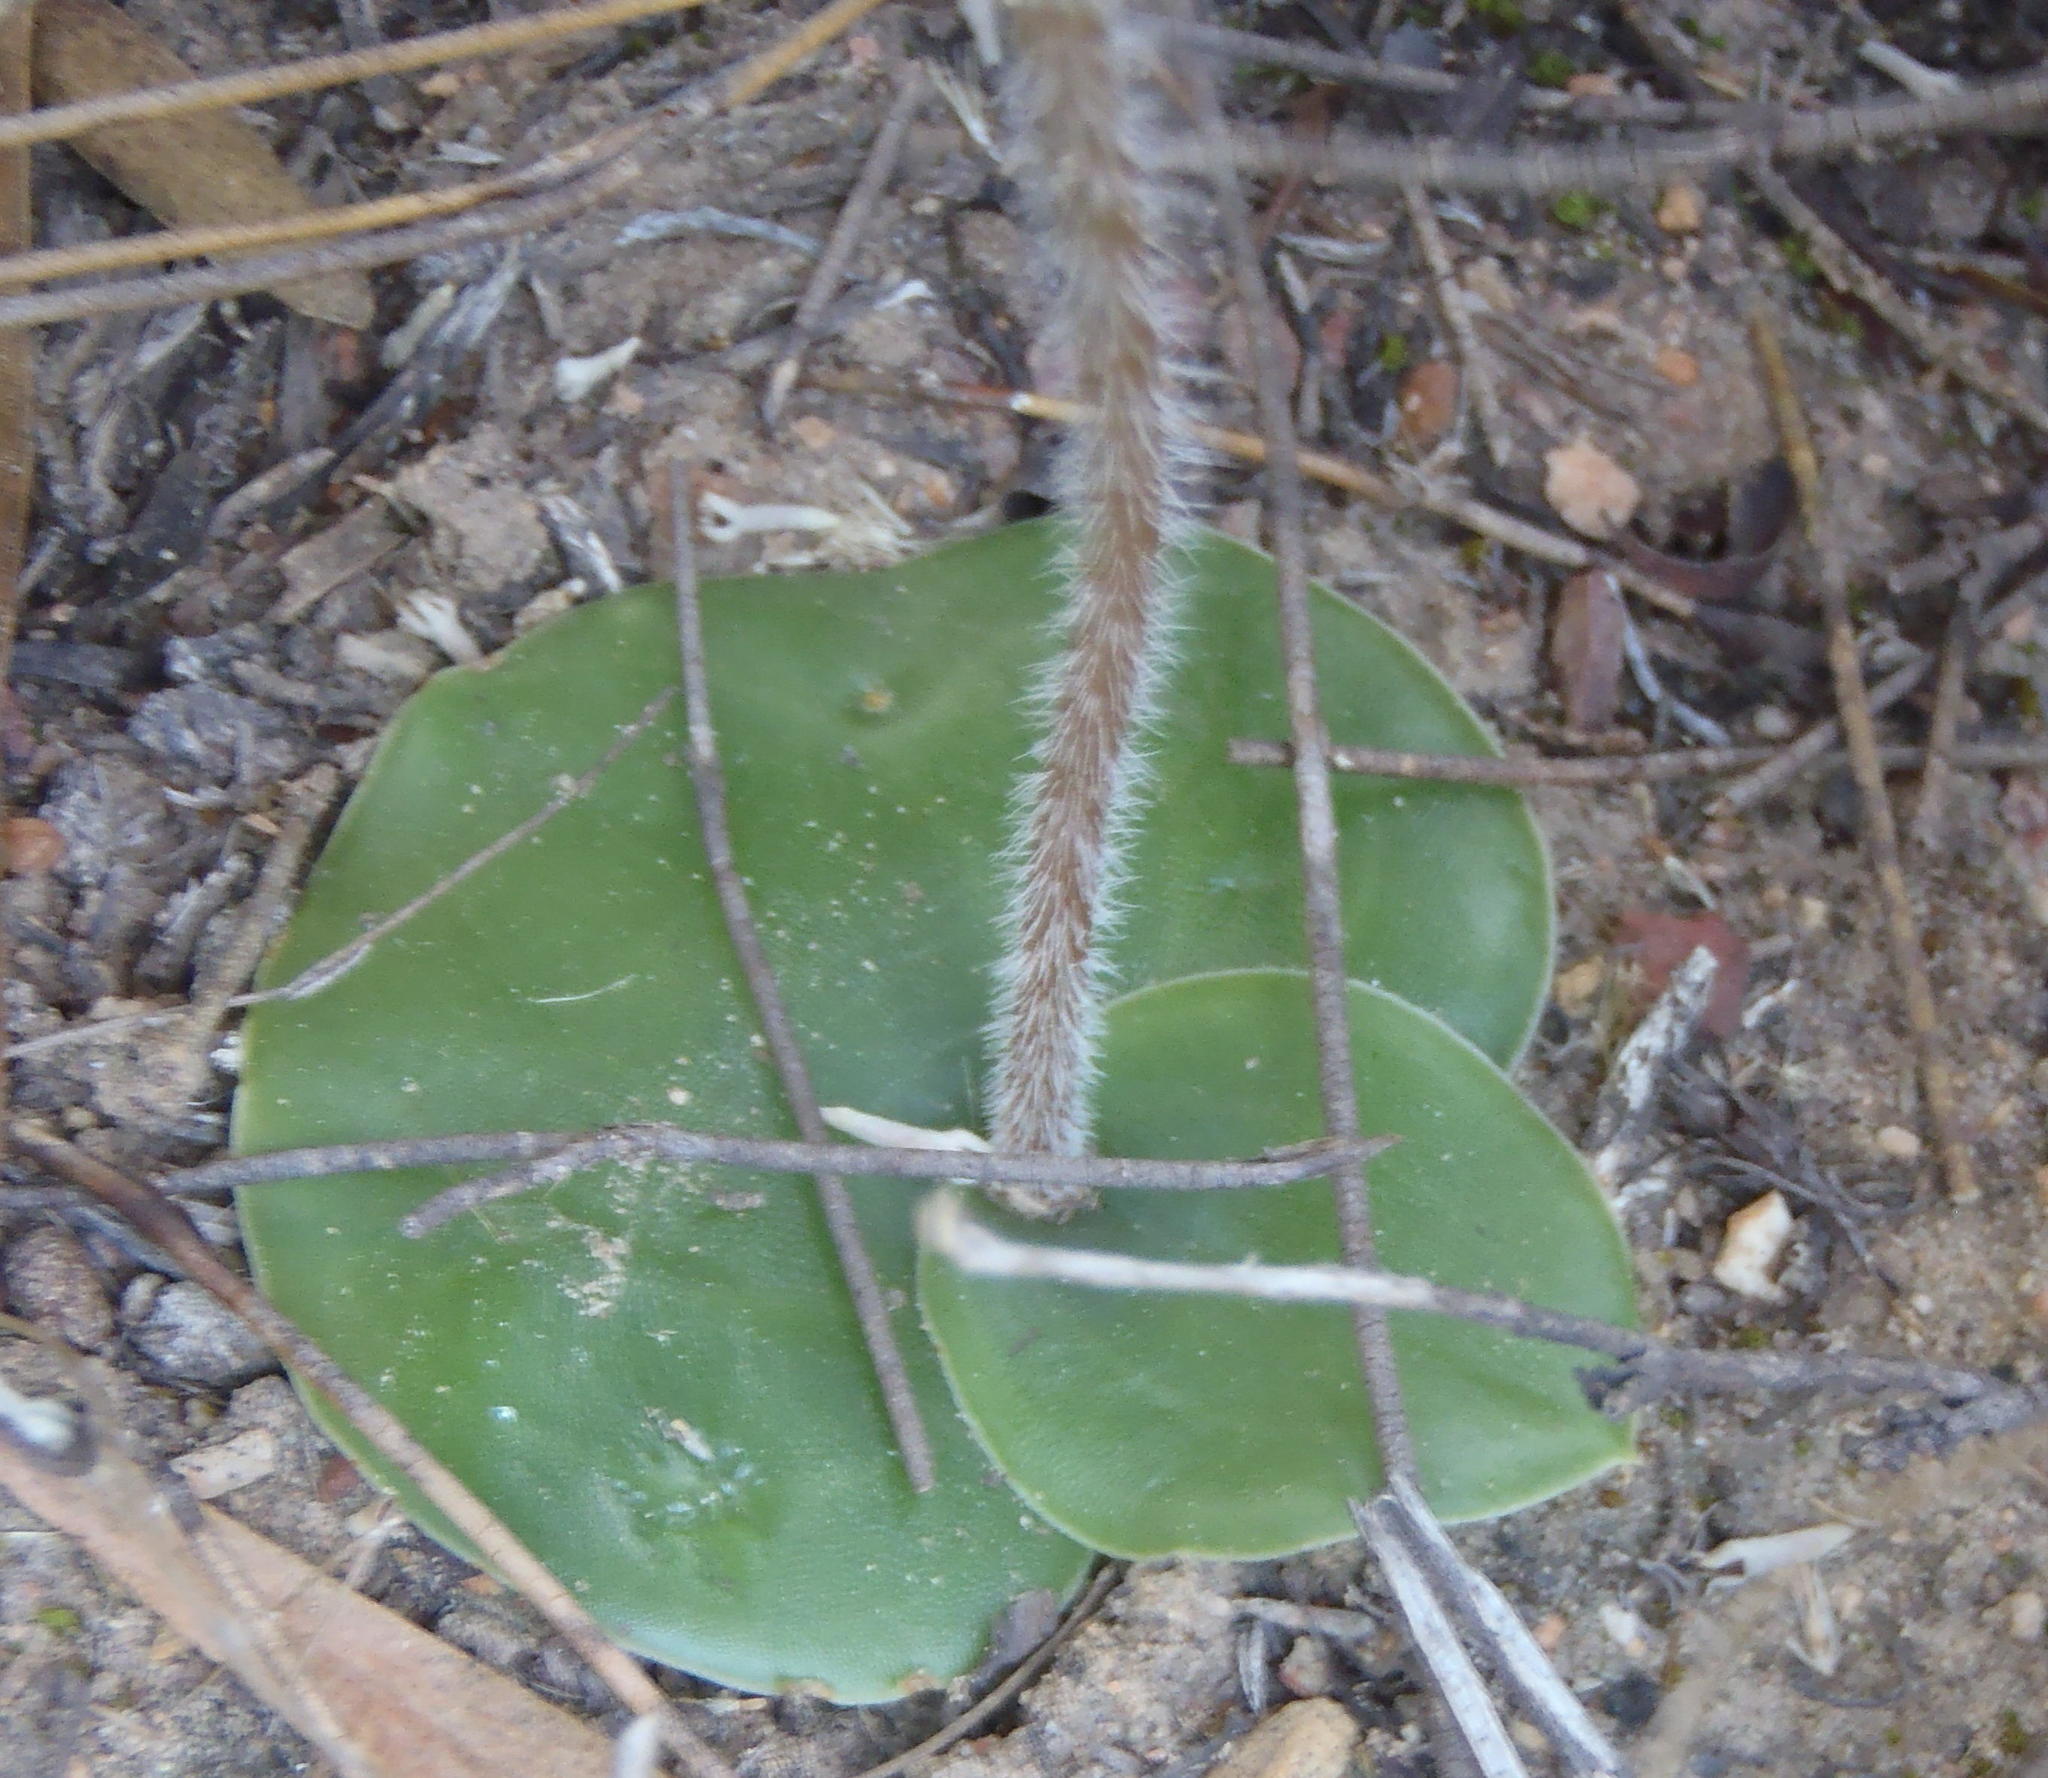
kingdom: Plantae
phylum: Tracheophyta
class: Liliopsida
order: Asparagales
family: Orchidaceae
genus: Holothrix
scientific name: Holothrix burchellii
